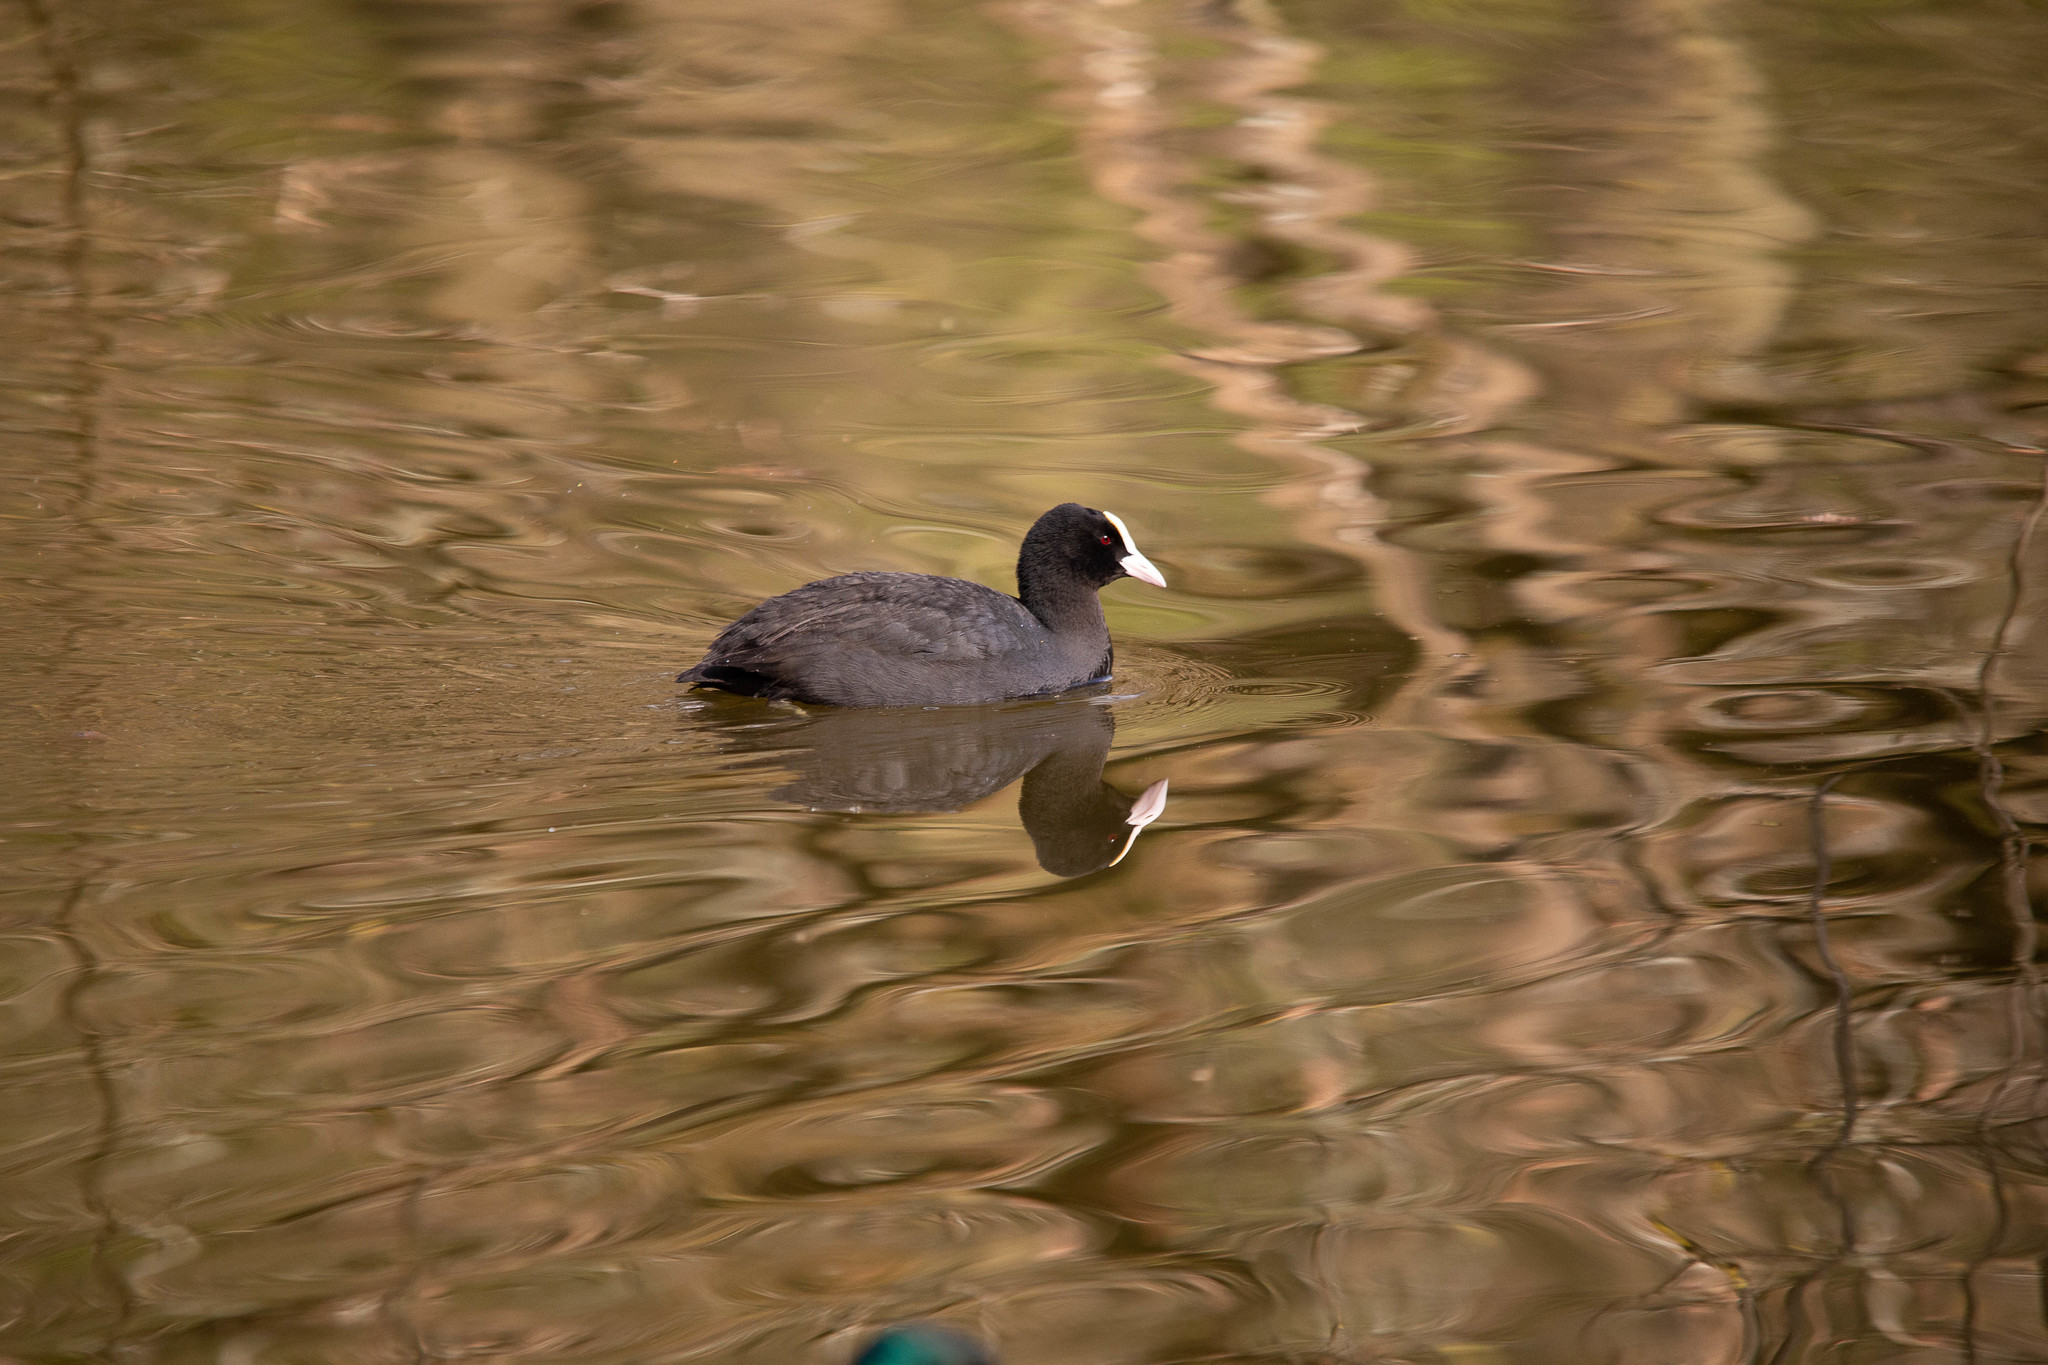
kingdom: Animalia
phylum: Chordata
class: Aves
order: Gruiformes
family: Rallidae
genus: Fulica
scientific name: Fulica atra
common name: Eurasian coot
